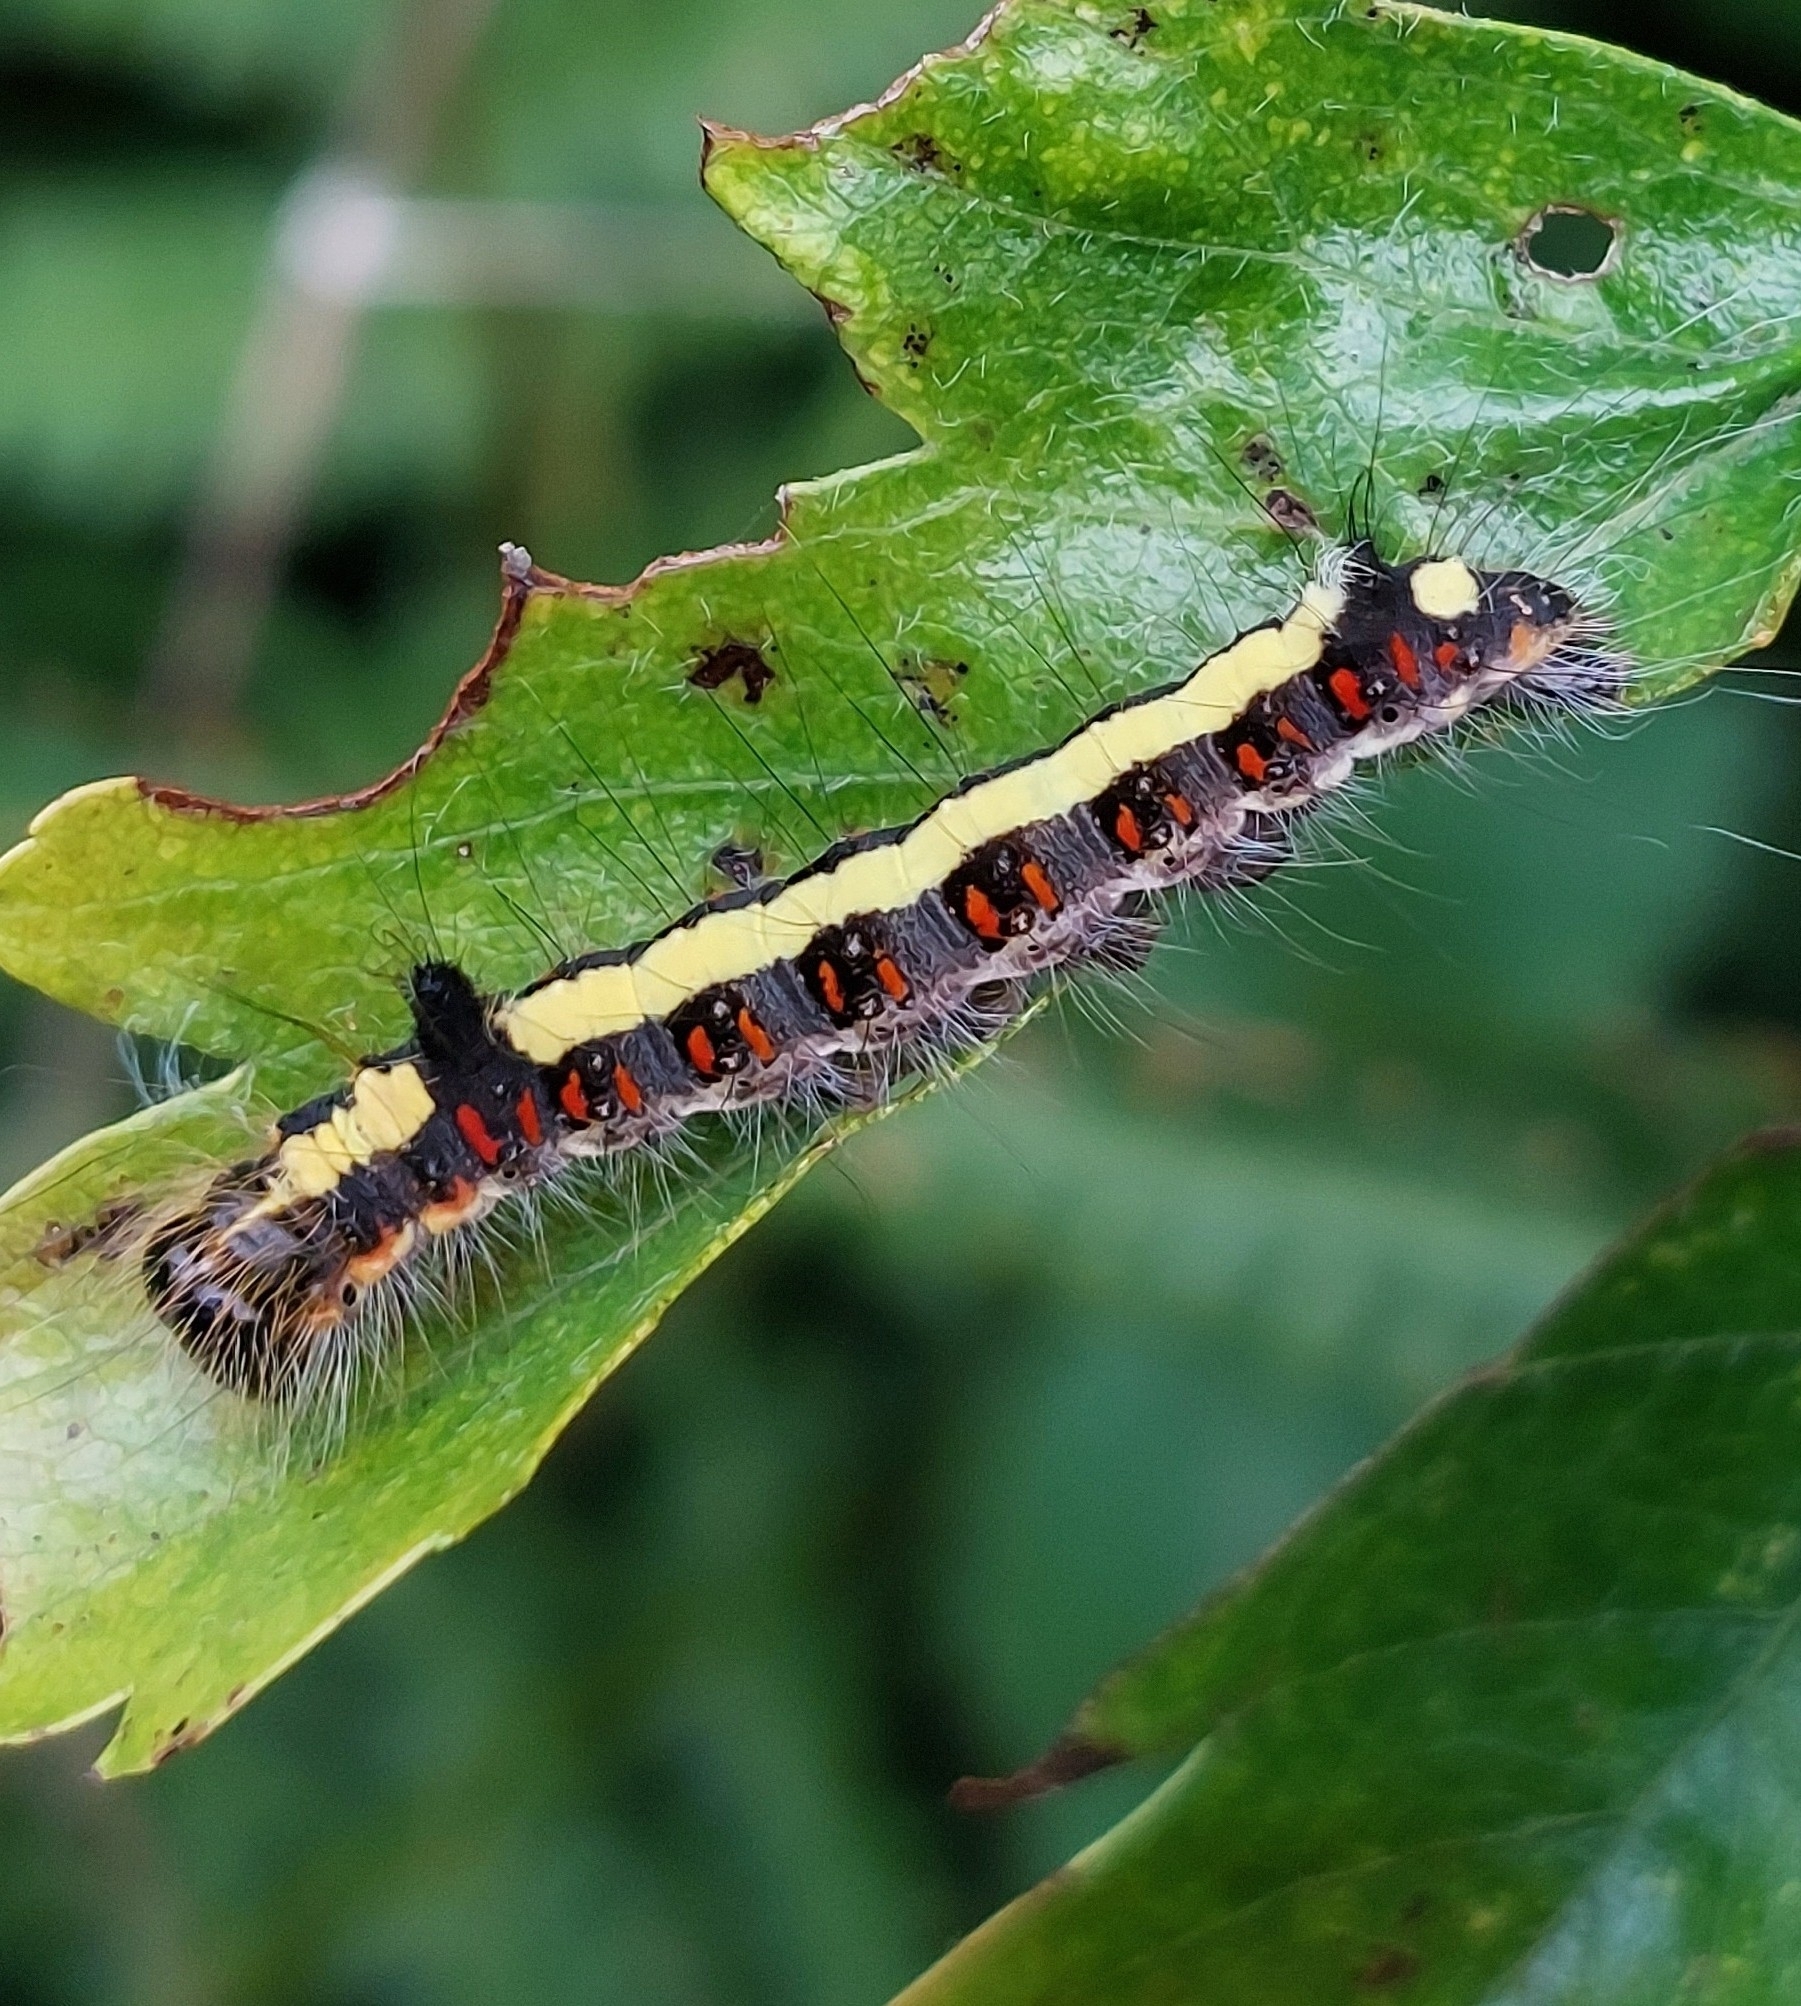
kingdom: Animalia
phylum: Arthropoda
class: Insecta
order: Lepidoptera
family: Noctuidae
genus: Acronicta
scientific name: Acronicta psi
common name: Grey dagger
